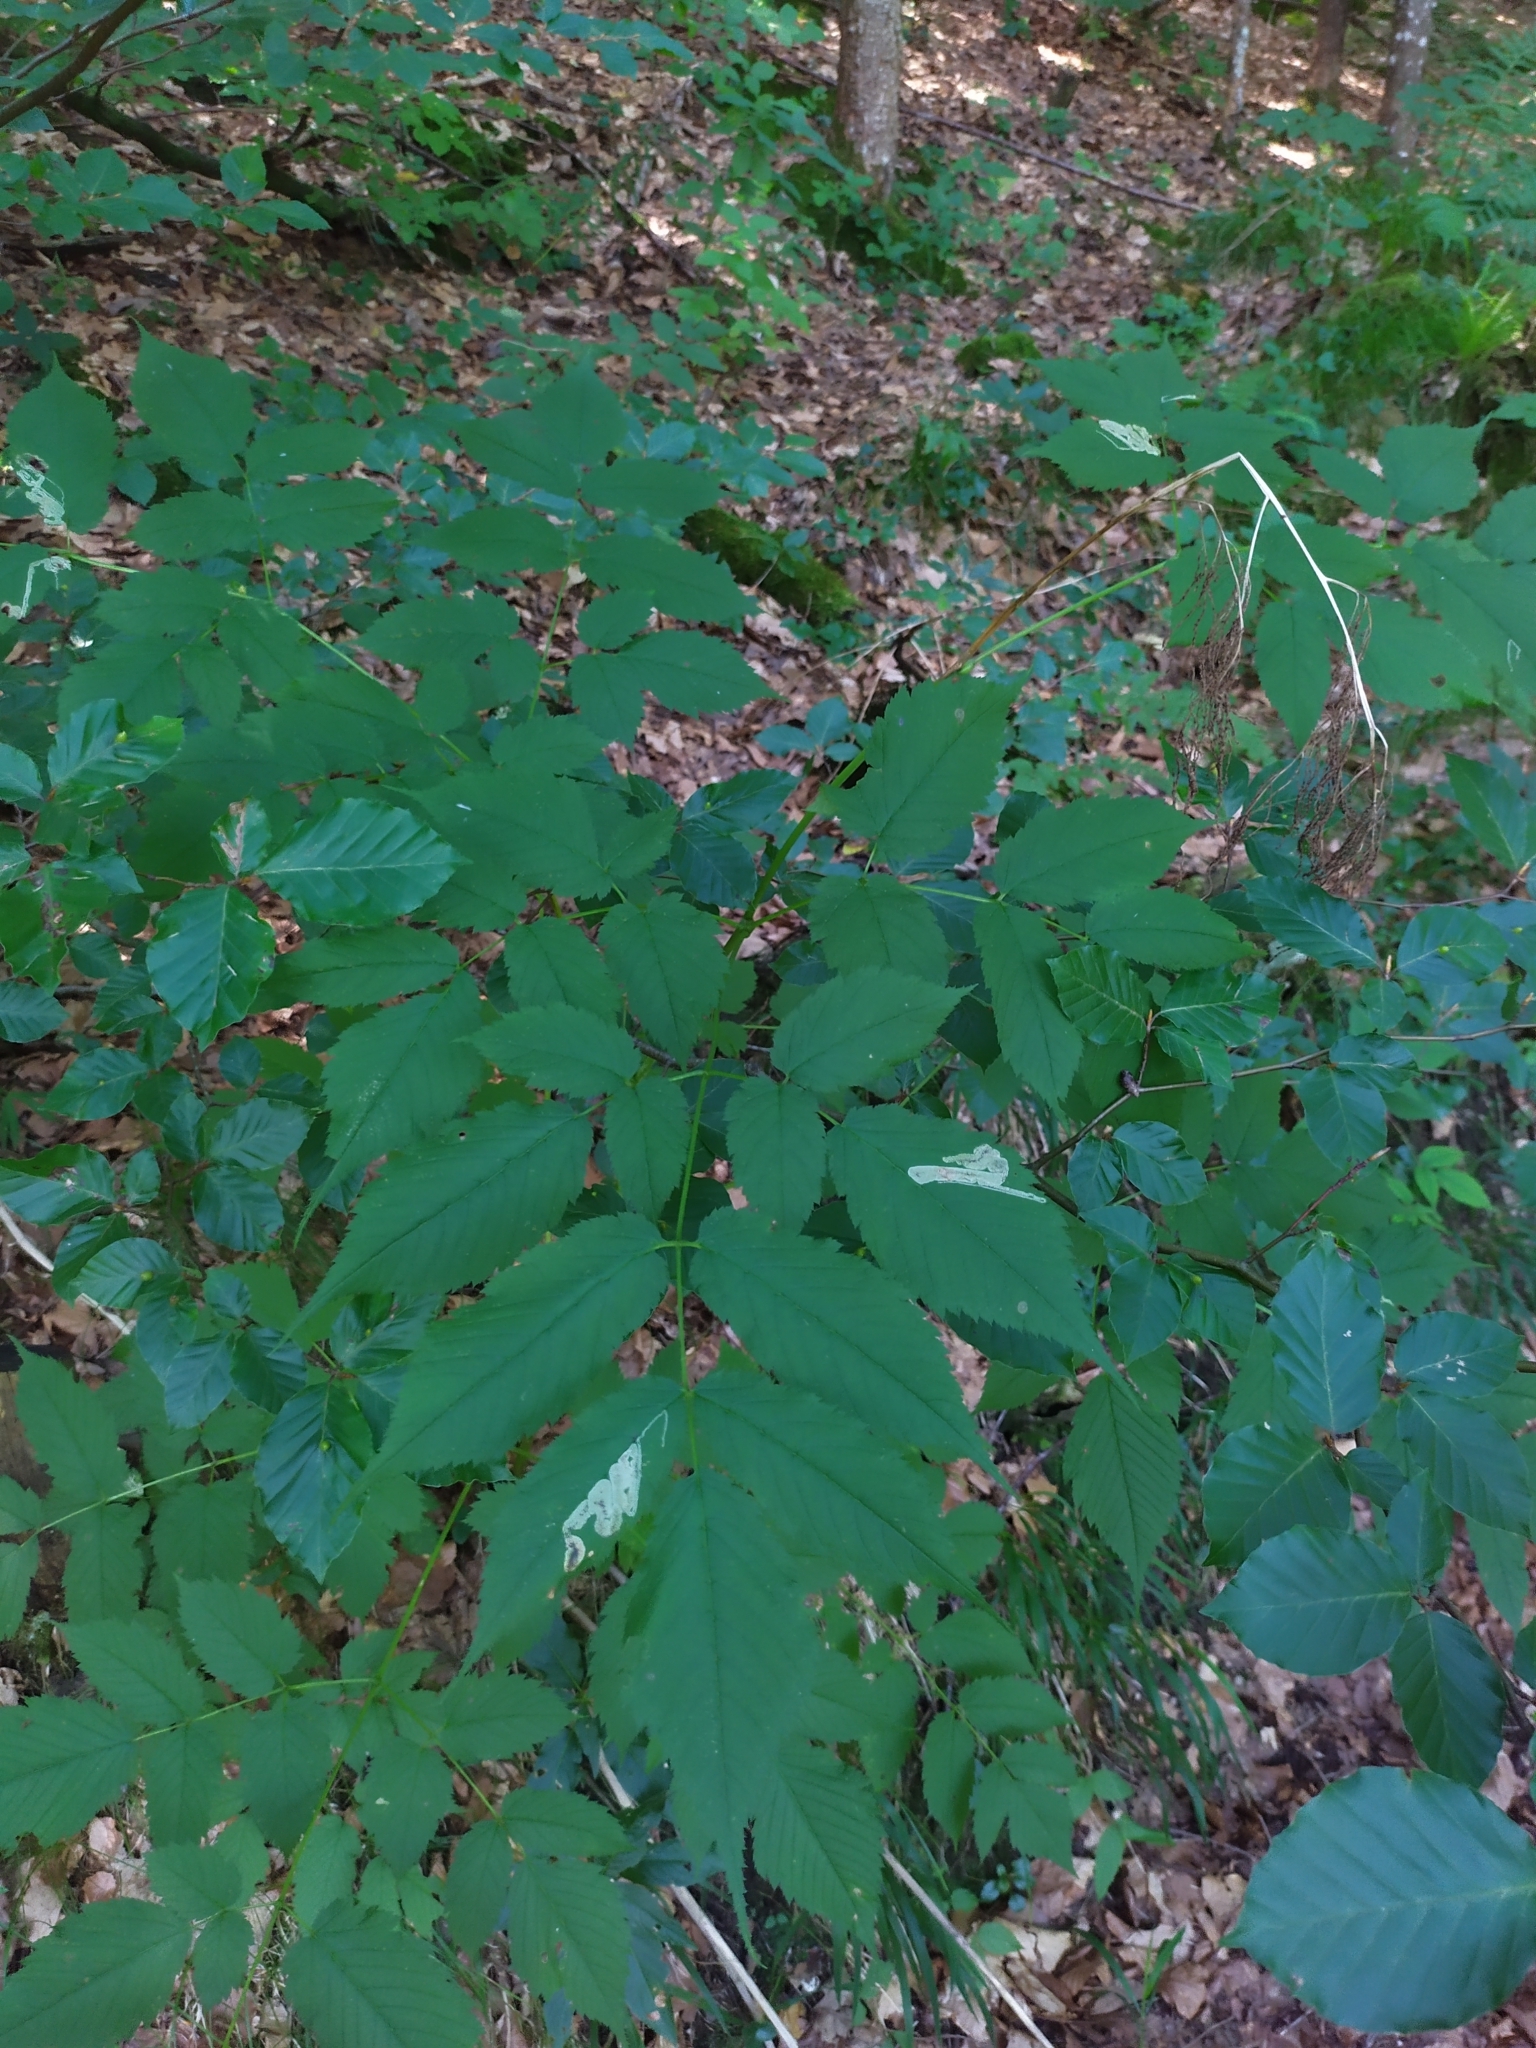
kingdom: Plantae
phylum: Tracheophyta
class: Magnoliopsida
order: Rosales
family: Rosaceae
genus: Aruncus
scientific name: Aruncus dioicus
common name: Buck's-beard
